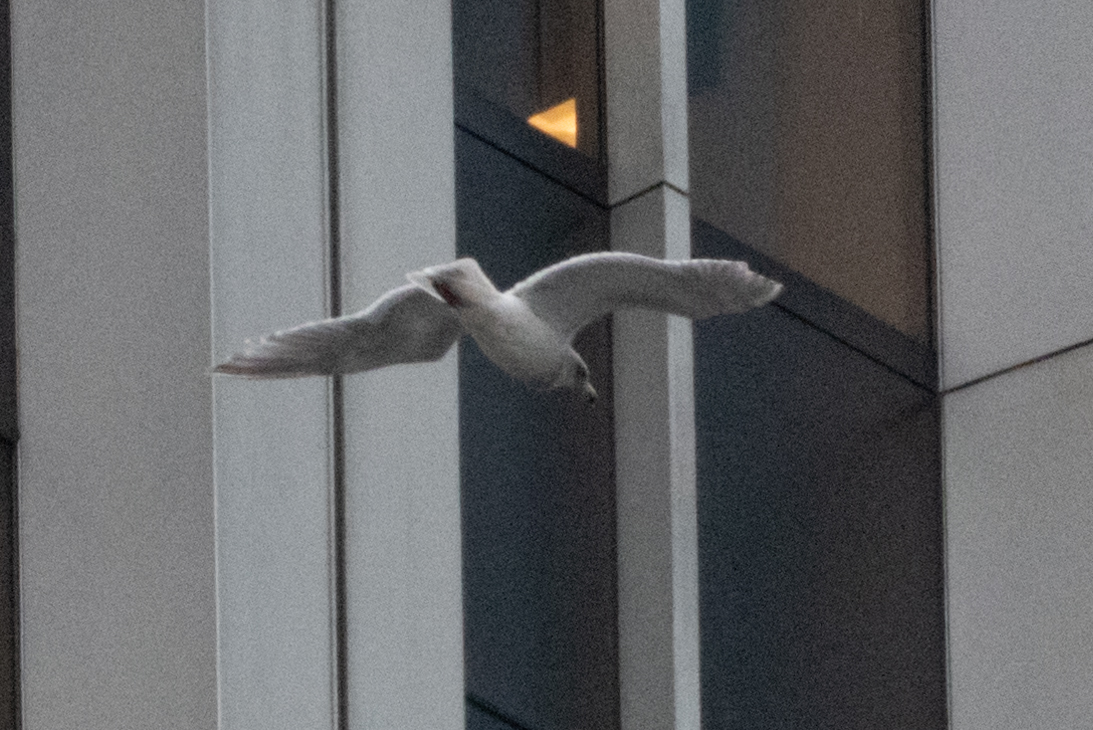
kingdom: Animalia
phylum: Chordata
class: Aves
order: Charadriiformes
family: Laridae
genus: Larus
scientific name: Larus glaucescens
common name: Glaucous-winged gull
